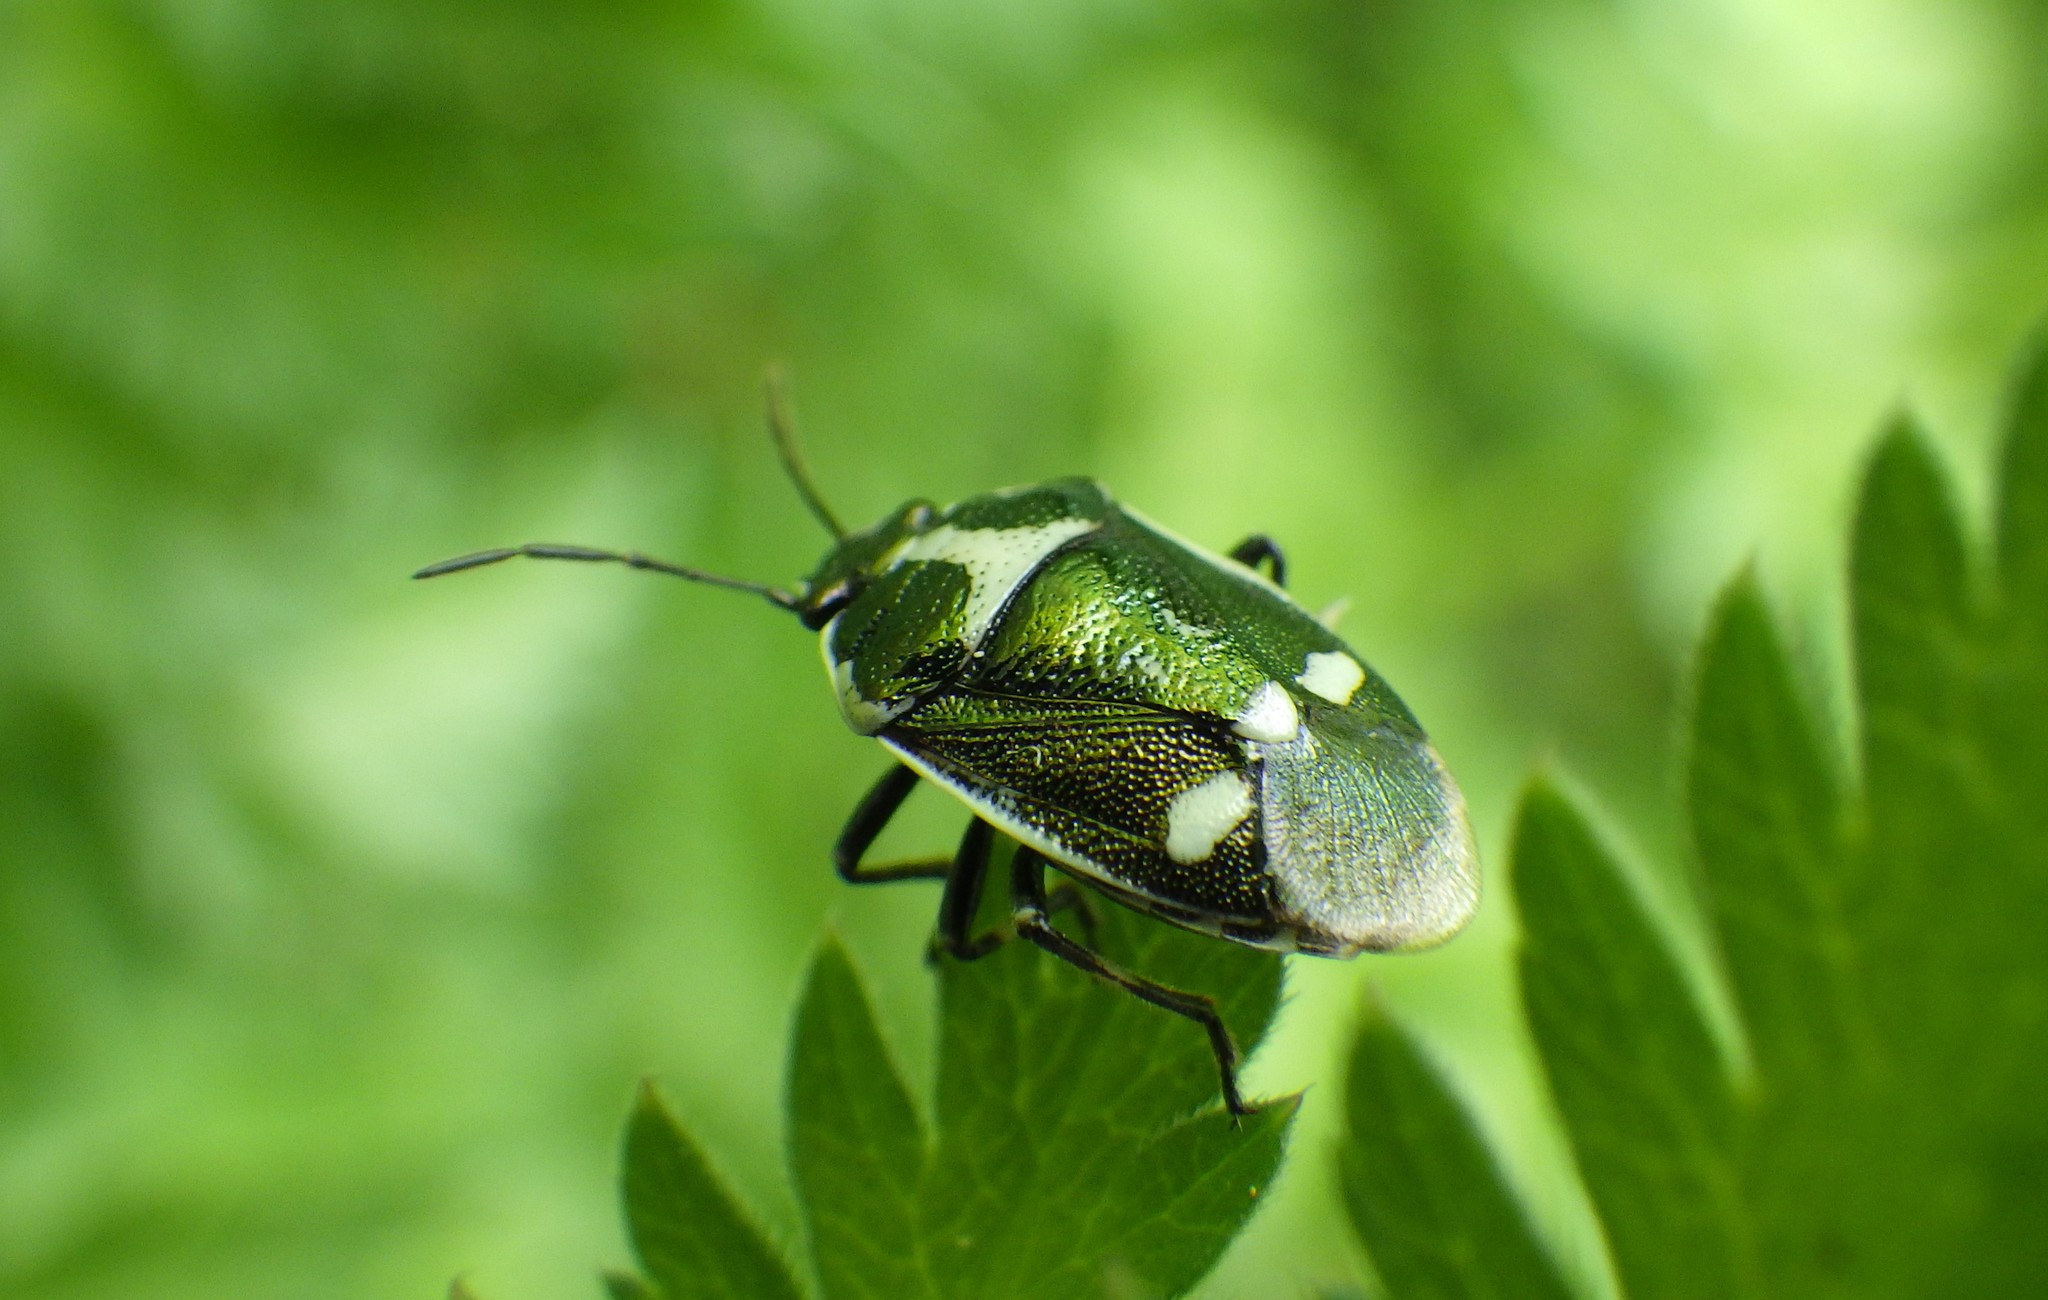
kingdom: Animalia
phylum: Arthropoda
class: Insecta
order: Hemiptera
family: Pentatomidae
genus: Eurydema
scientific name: Eurydema oleracea
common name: Cabbage bug
